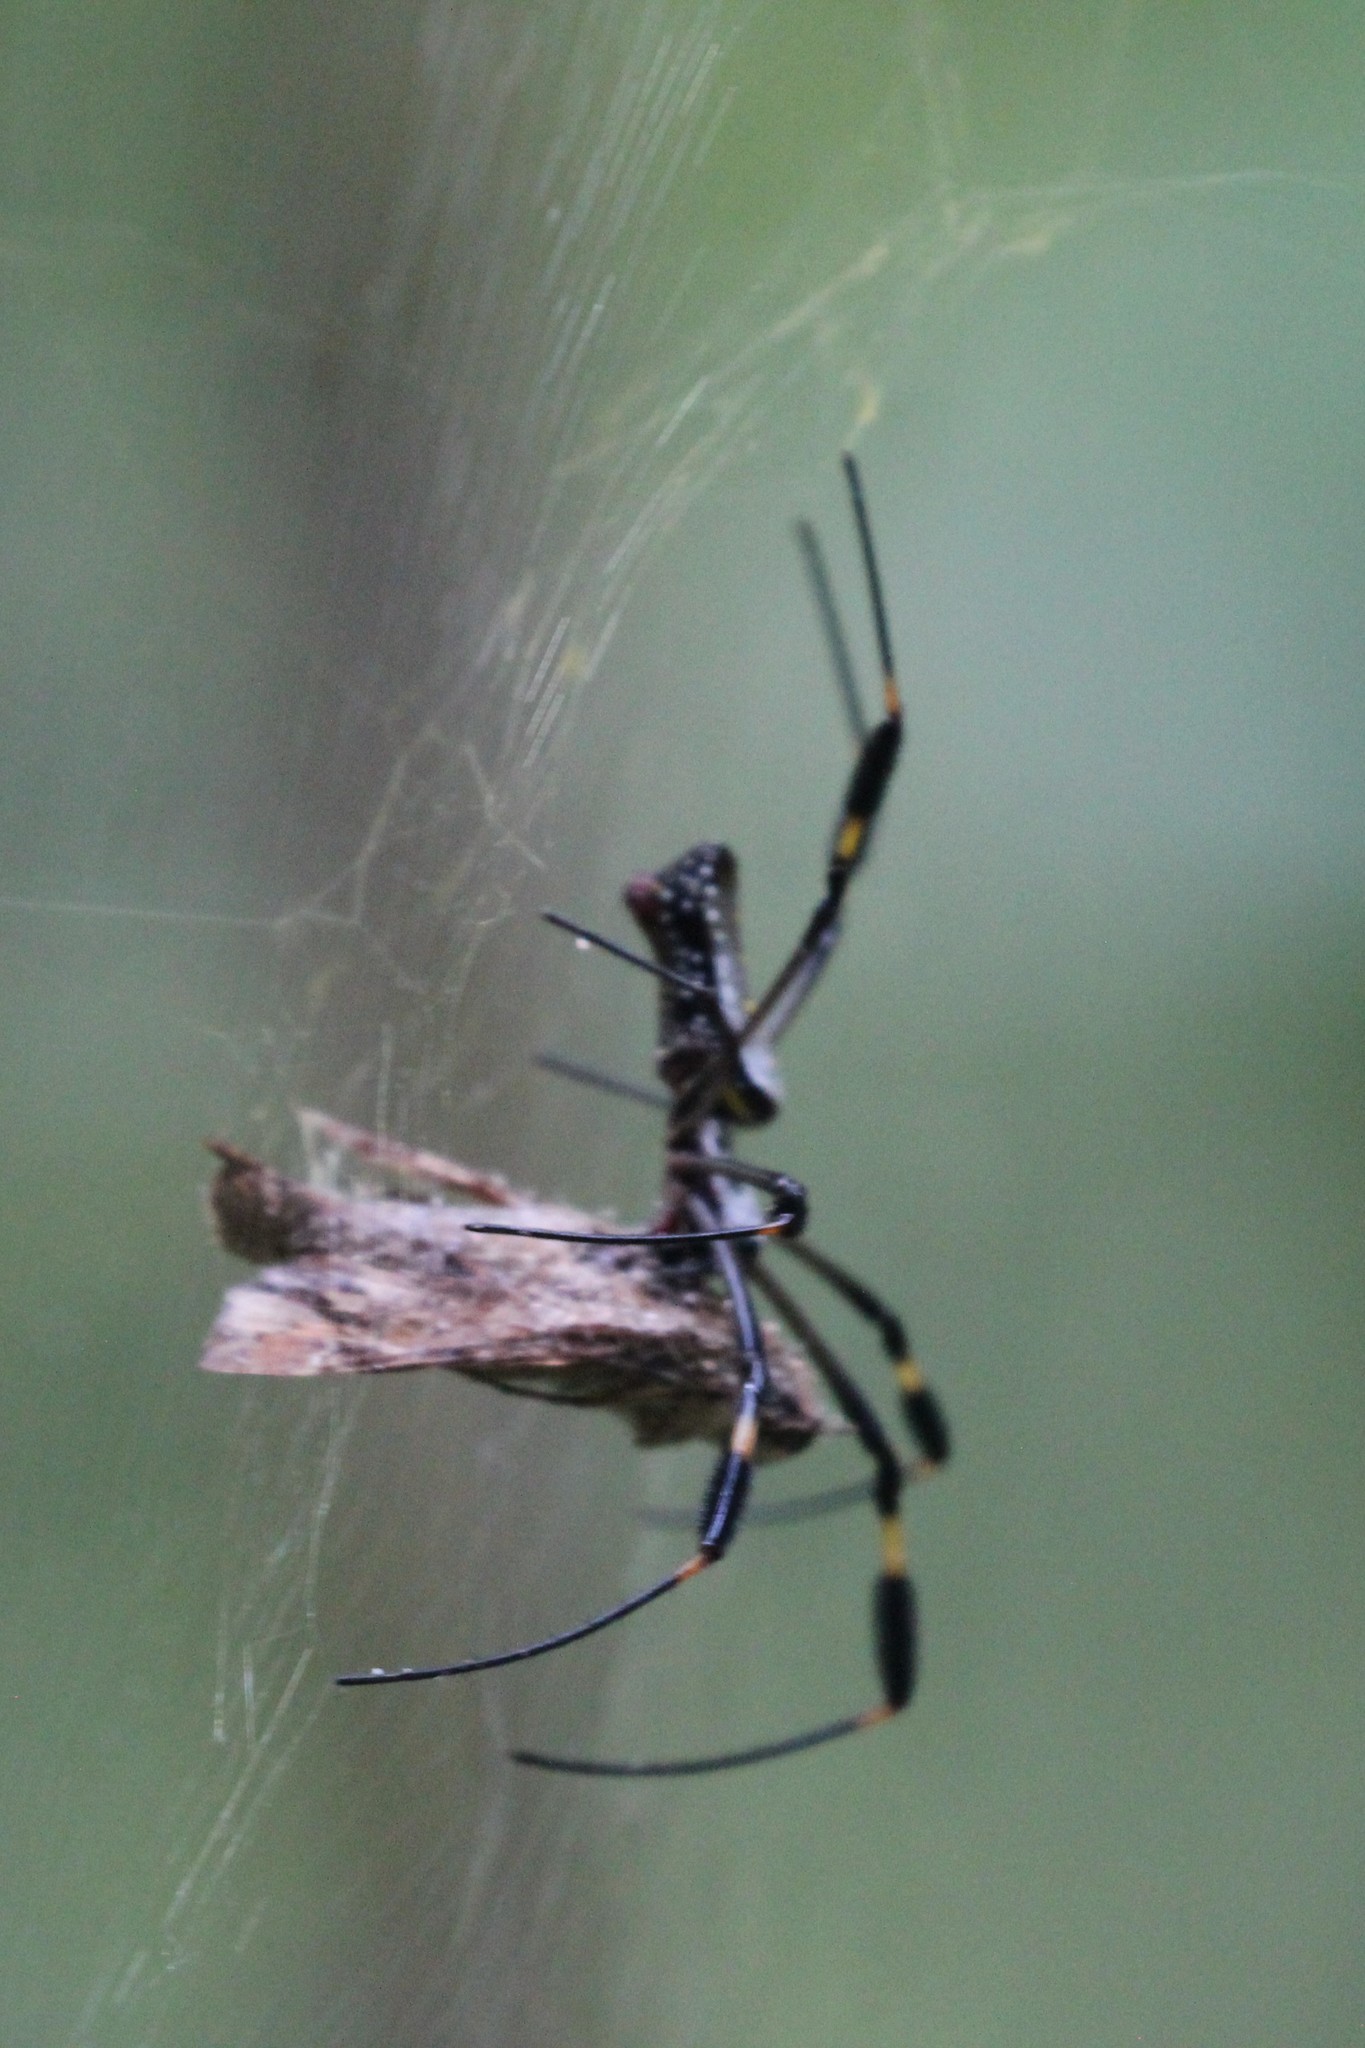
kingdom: Animalia
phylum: Arthropoda
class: Arachnida
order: Araneae
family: Araneidae
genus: Trichonephila
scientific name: Trichonephila clavipes
